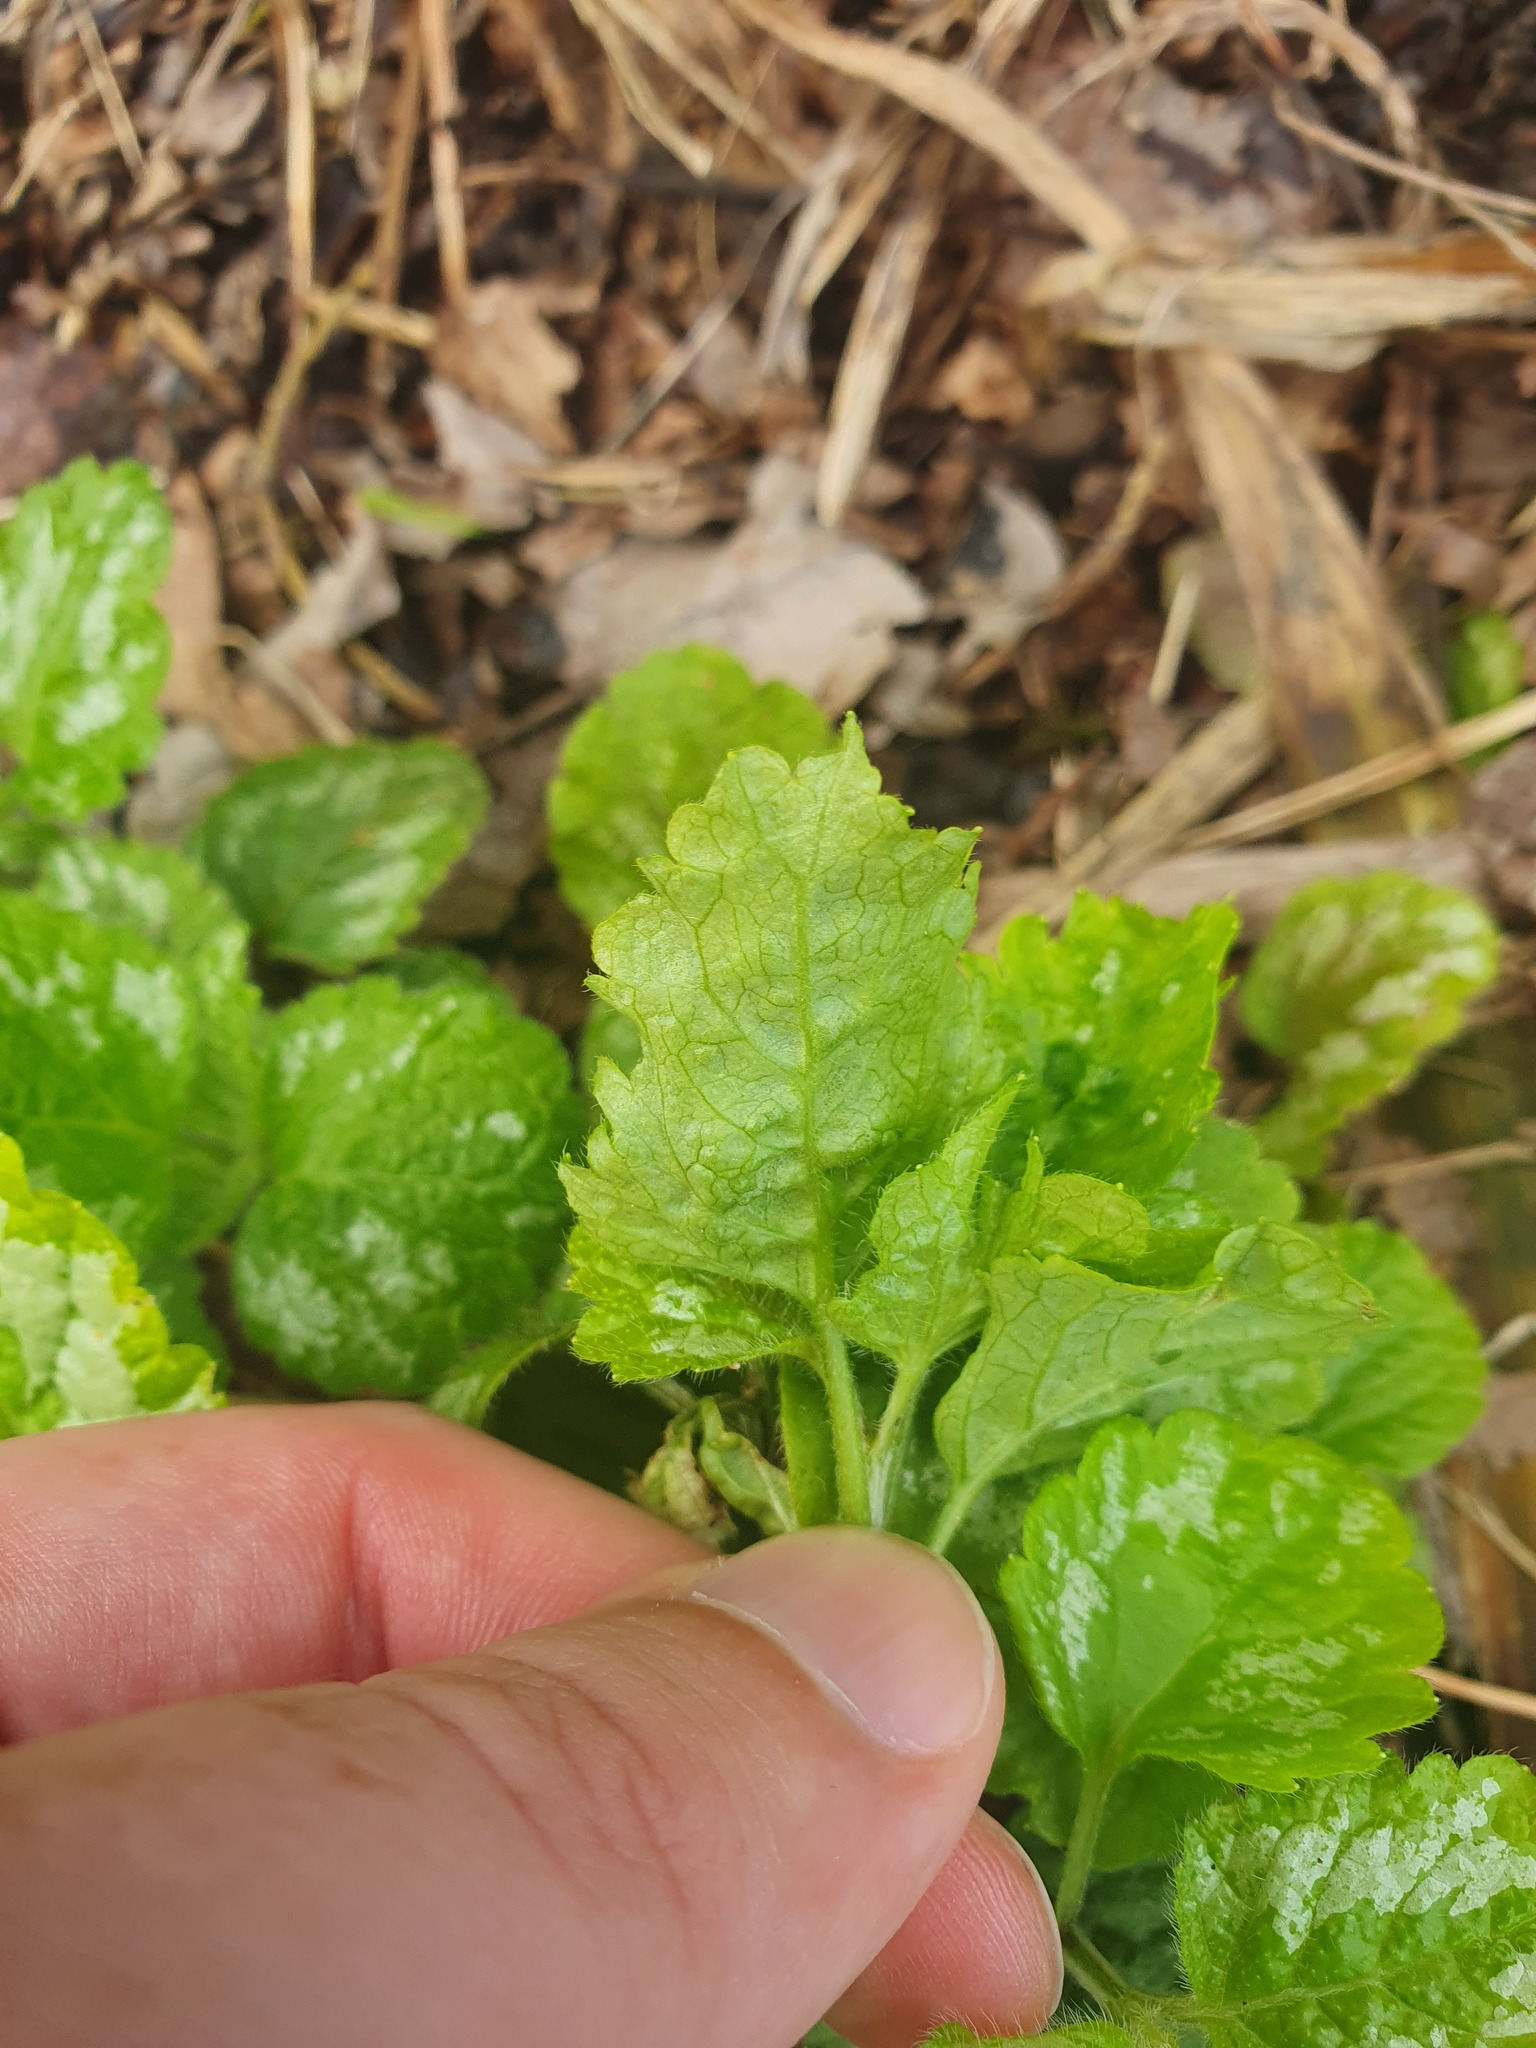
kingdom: Plantae
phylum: Tracheophyta
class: Magnoliopsida
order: Lamiales
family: Lamiaceae
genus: Lamium
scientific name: Lamium galeobdolon
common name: Yellow archangel
